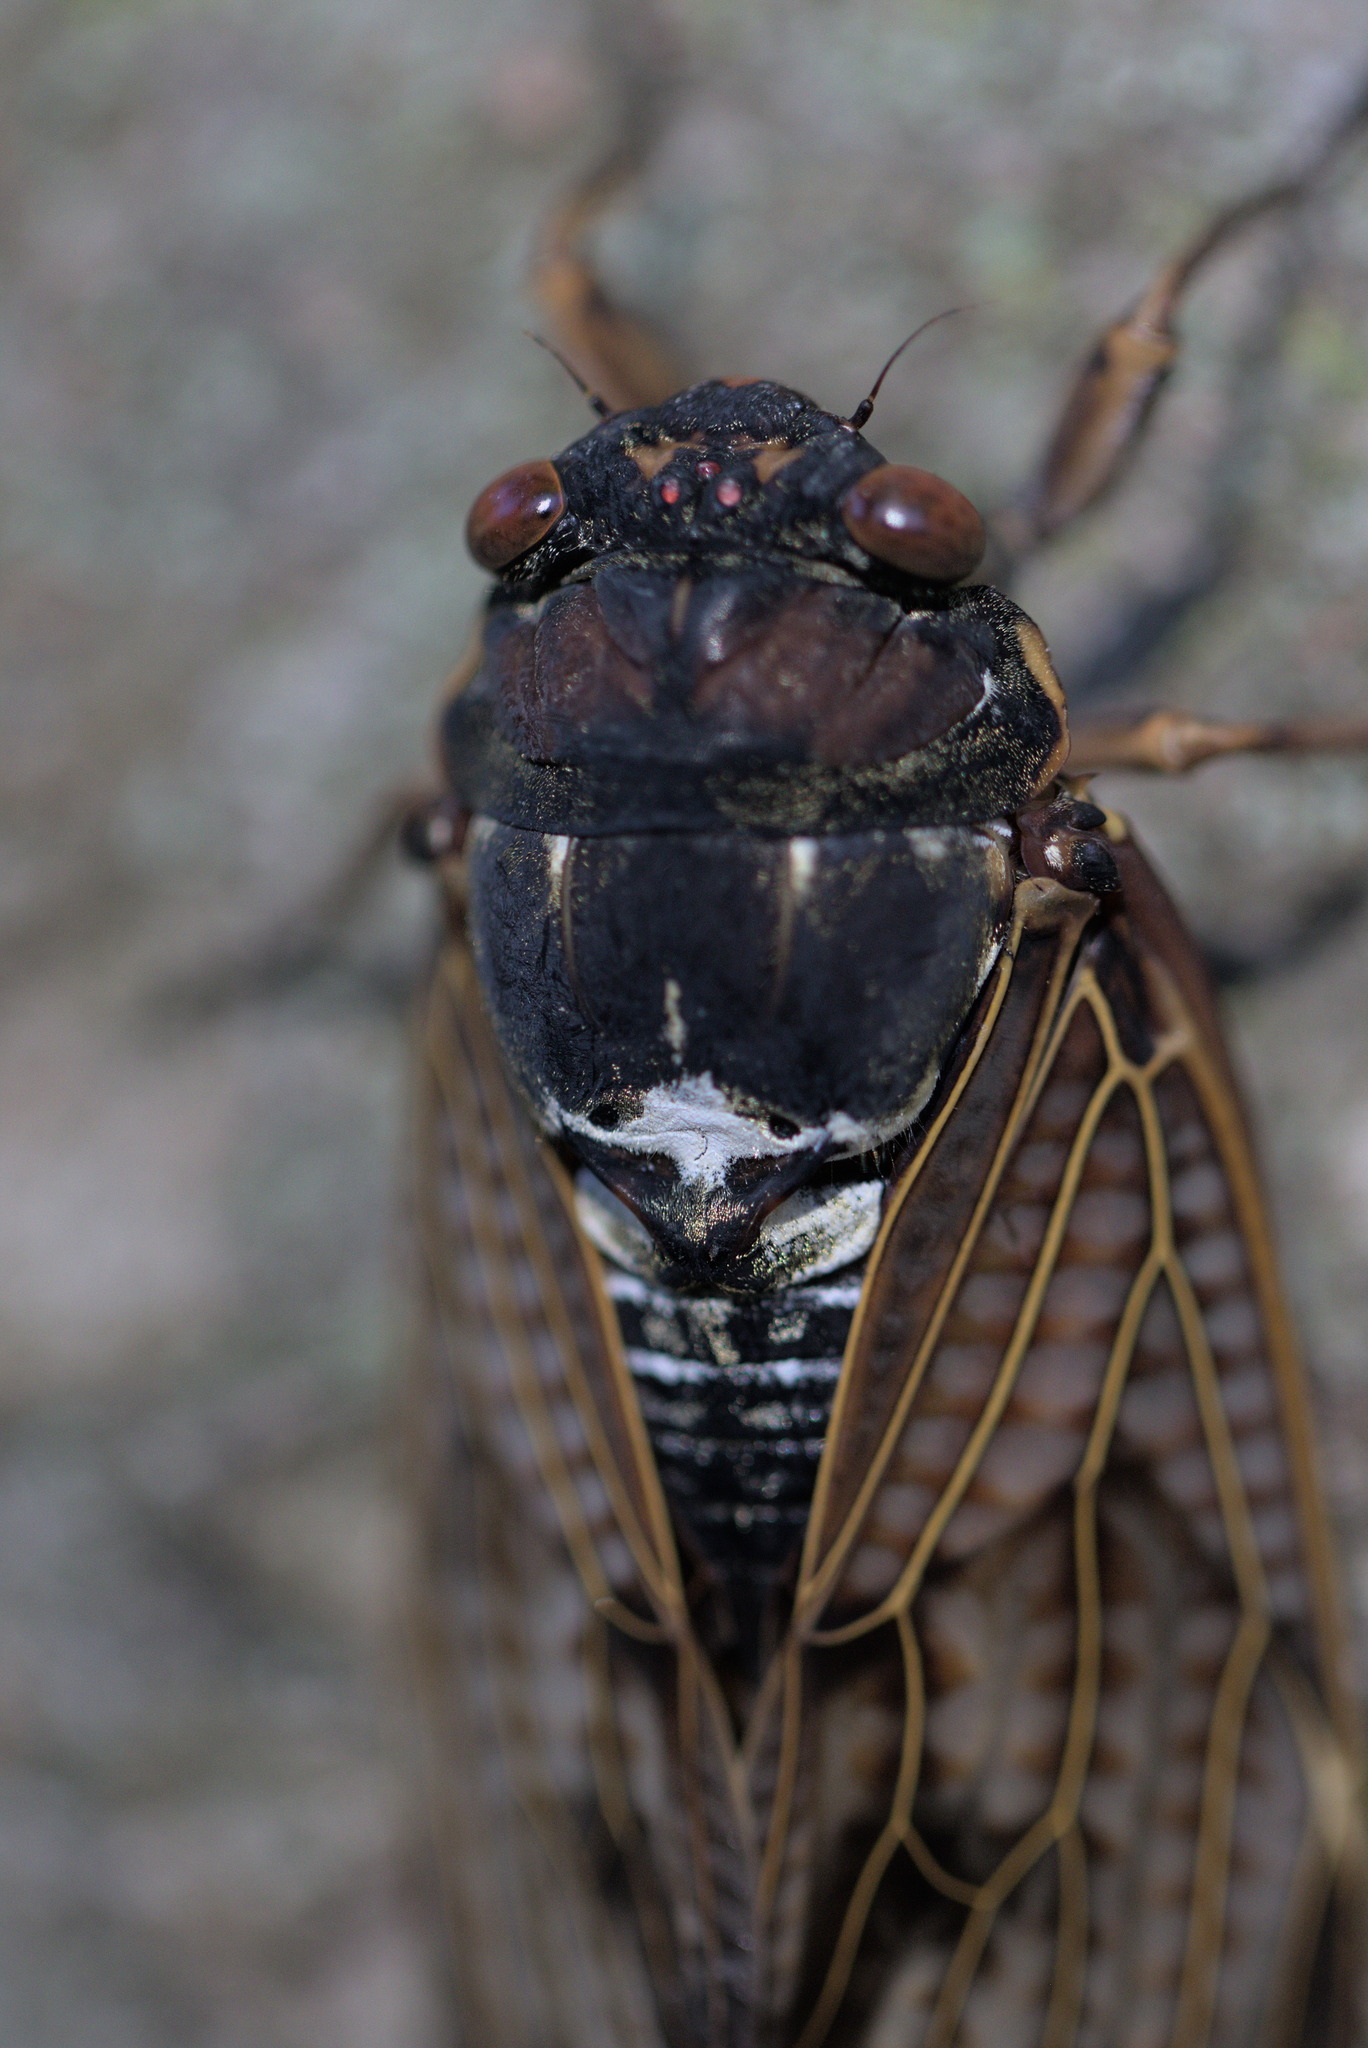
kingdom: Animalia
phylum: Arthropoda
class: Insecta
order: Hemiptera
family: Cicadidae
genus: Graptopsaltria
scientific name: Graptopsaltria nigrofuscata
